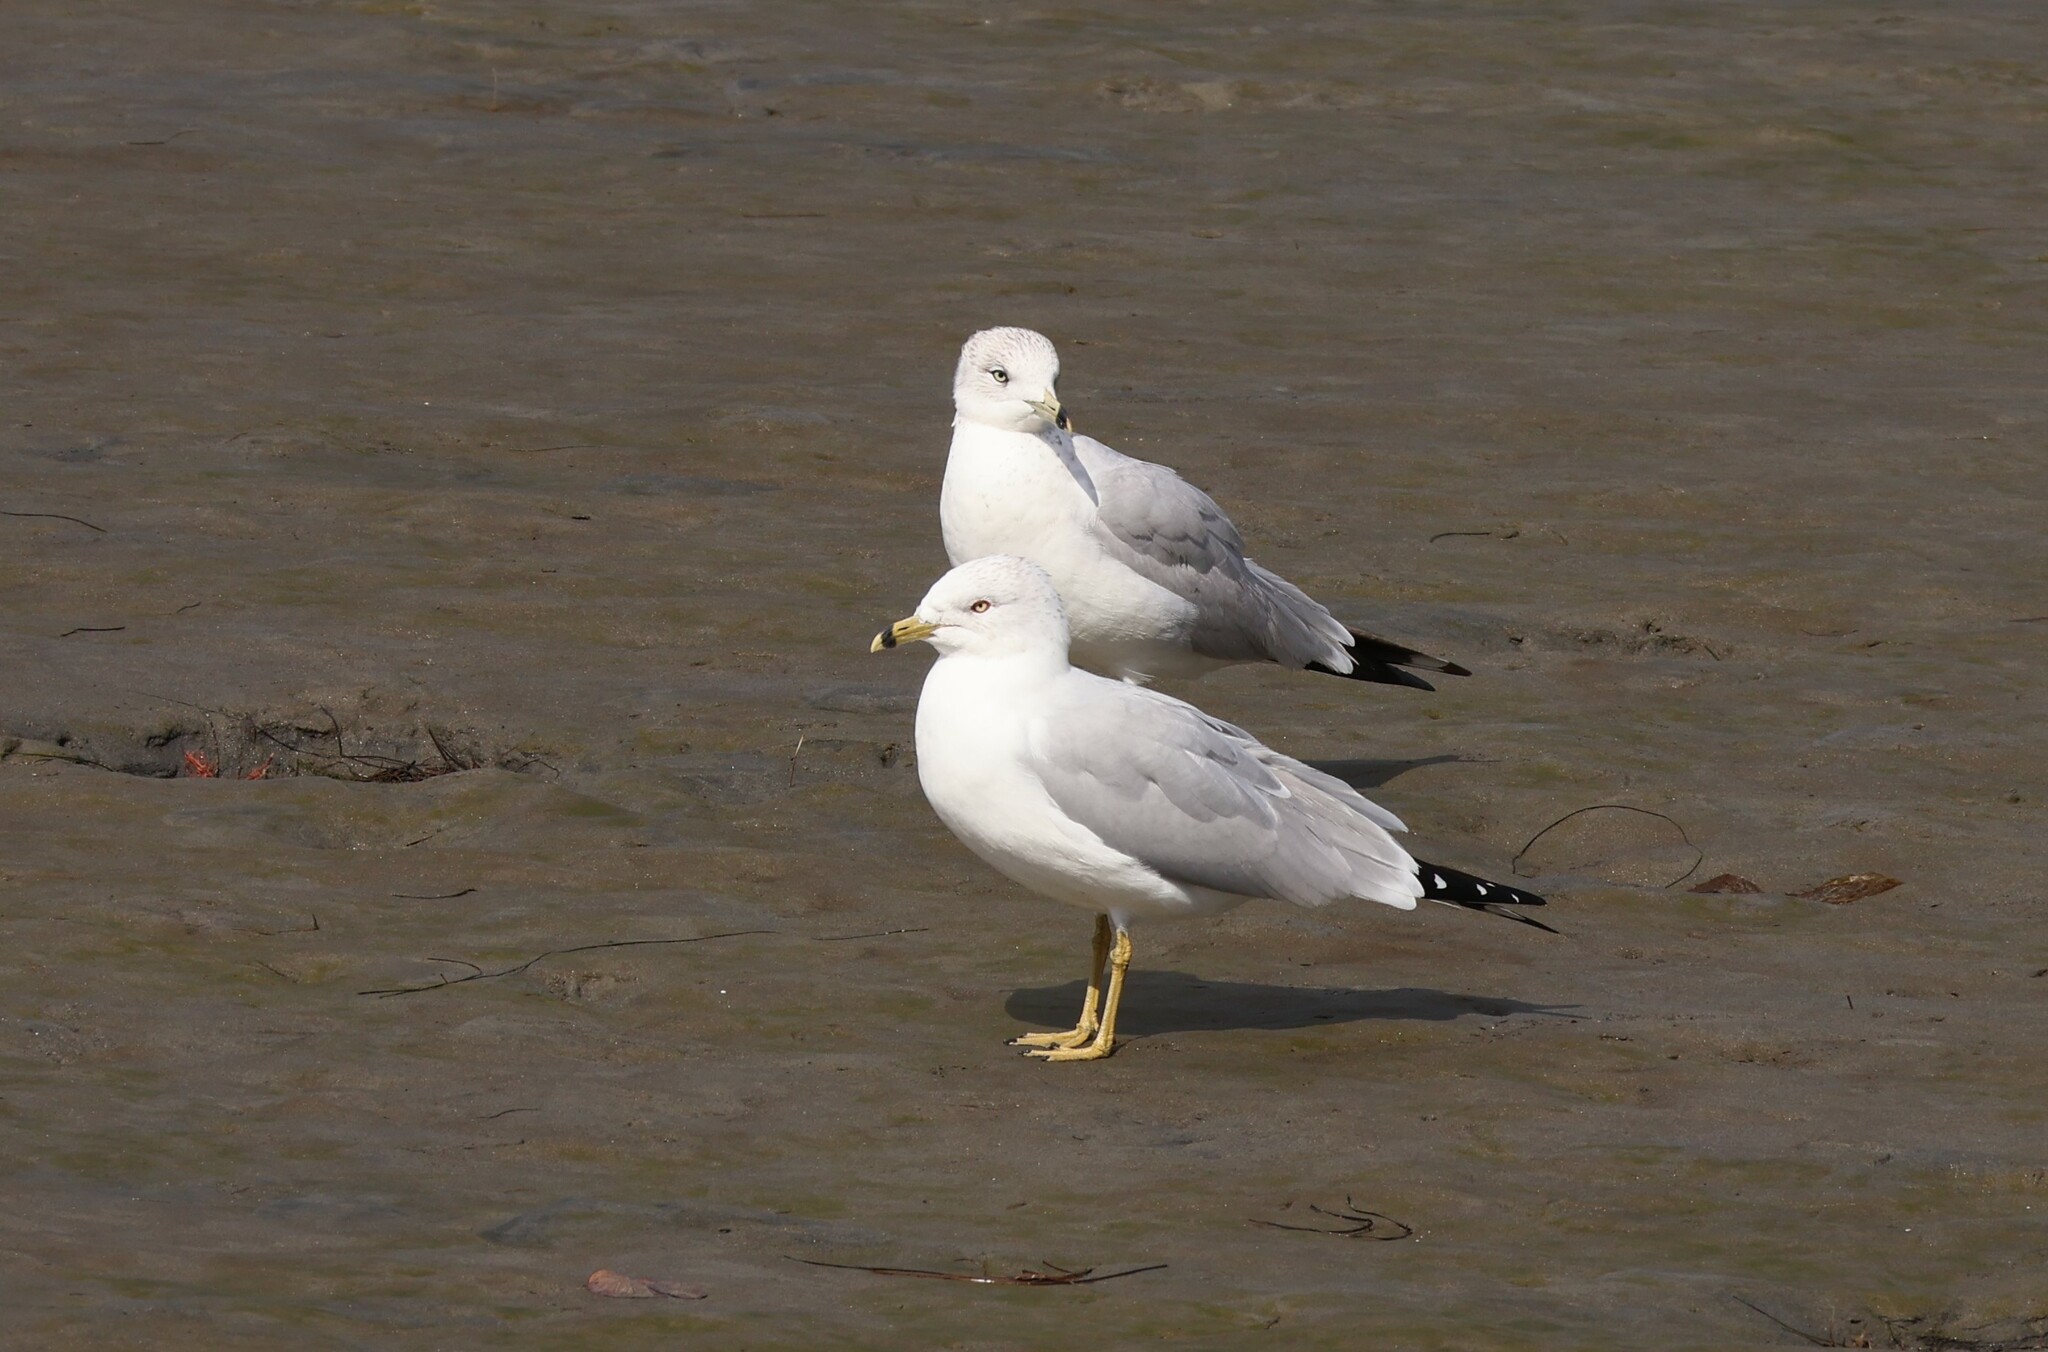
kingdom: Animalia
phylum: Chordata
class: Aves
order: Charadriiformes
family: Laridae
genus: Larus
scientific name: Larus delawarensis
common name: Ring-billed gull
